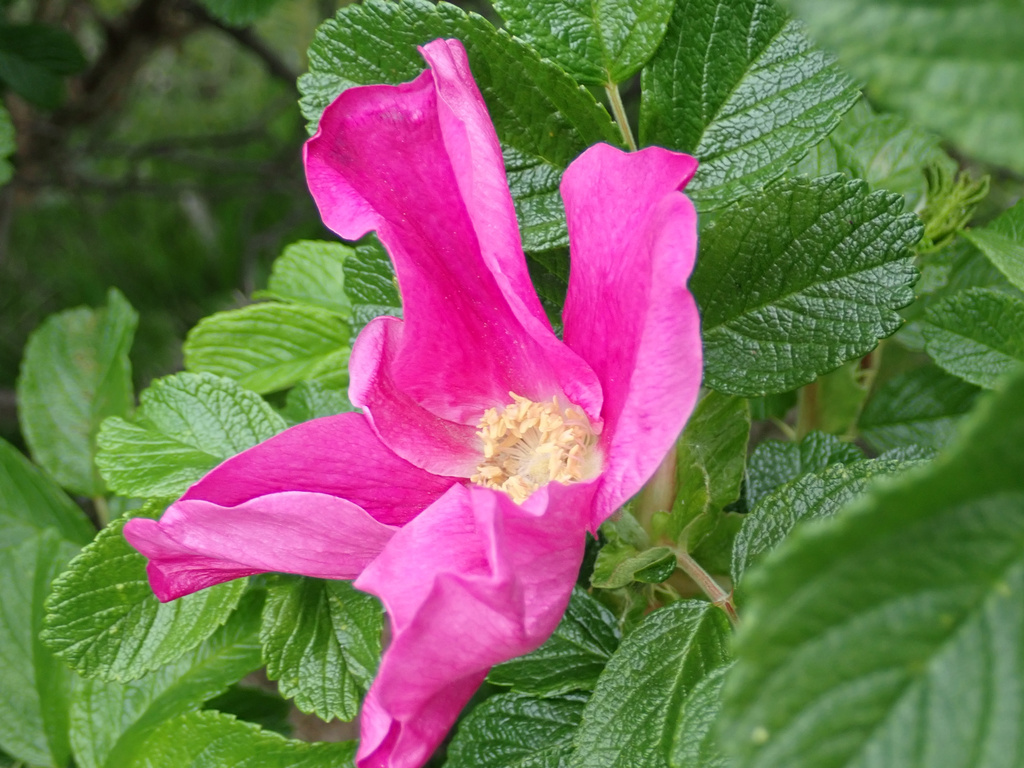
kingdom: Plantae
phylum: Tracheophyta
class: Magnoliopsida
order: Rosales
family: Rosaceae
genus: Rosa
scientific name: Rosa rugosa
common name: Japanese rose
